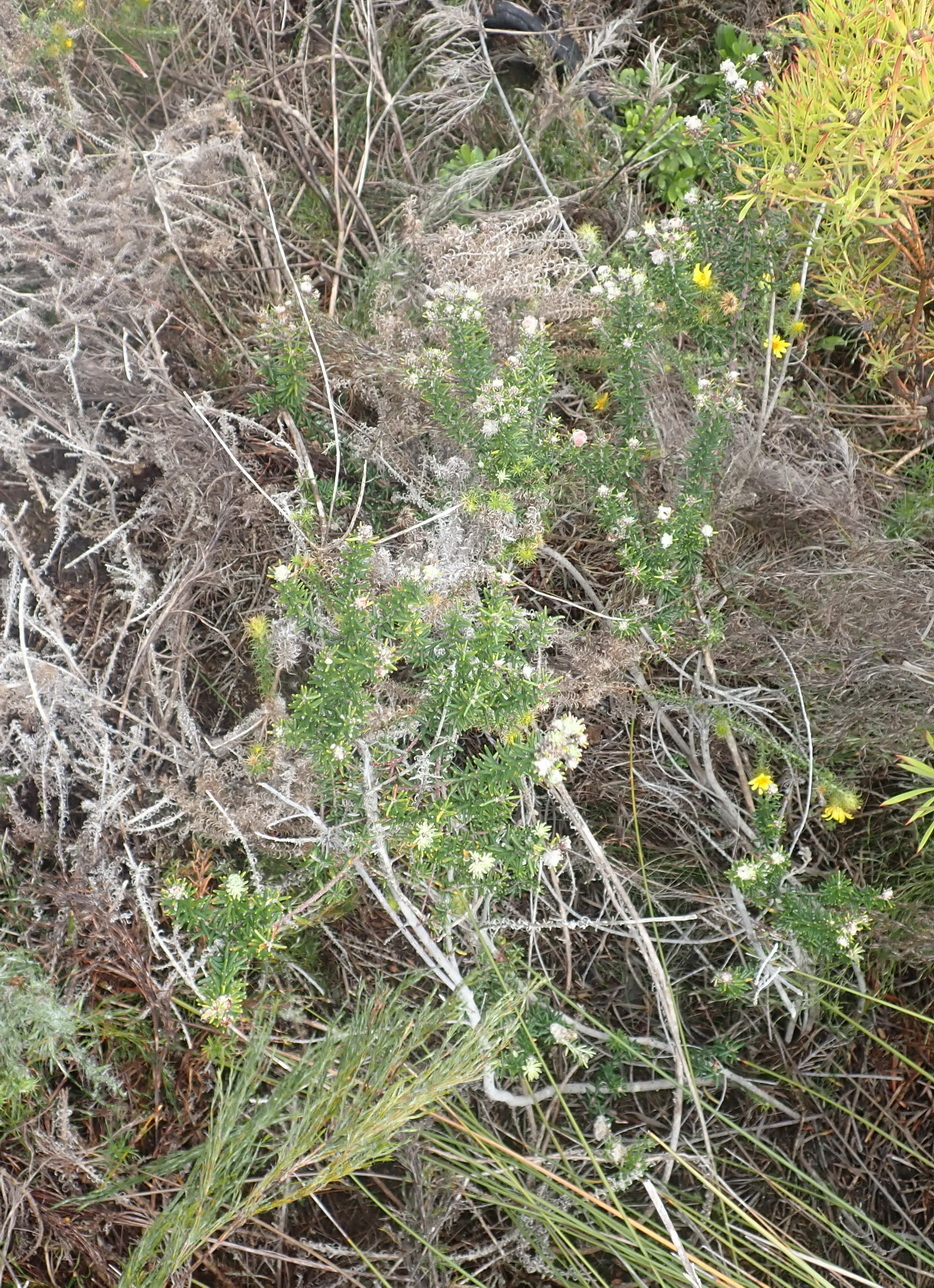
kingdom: Plantae
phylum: Tracheophyta
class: Magnoliopsida
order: Rosales
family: Rhamnaceae
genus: Trichocephalus
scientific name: Trichocephalus stipularis
